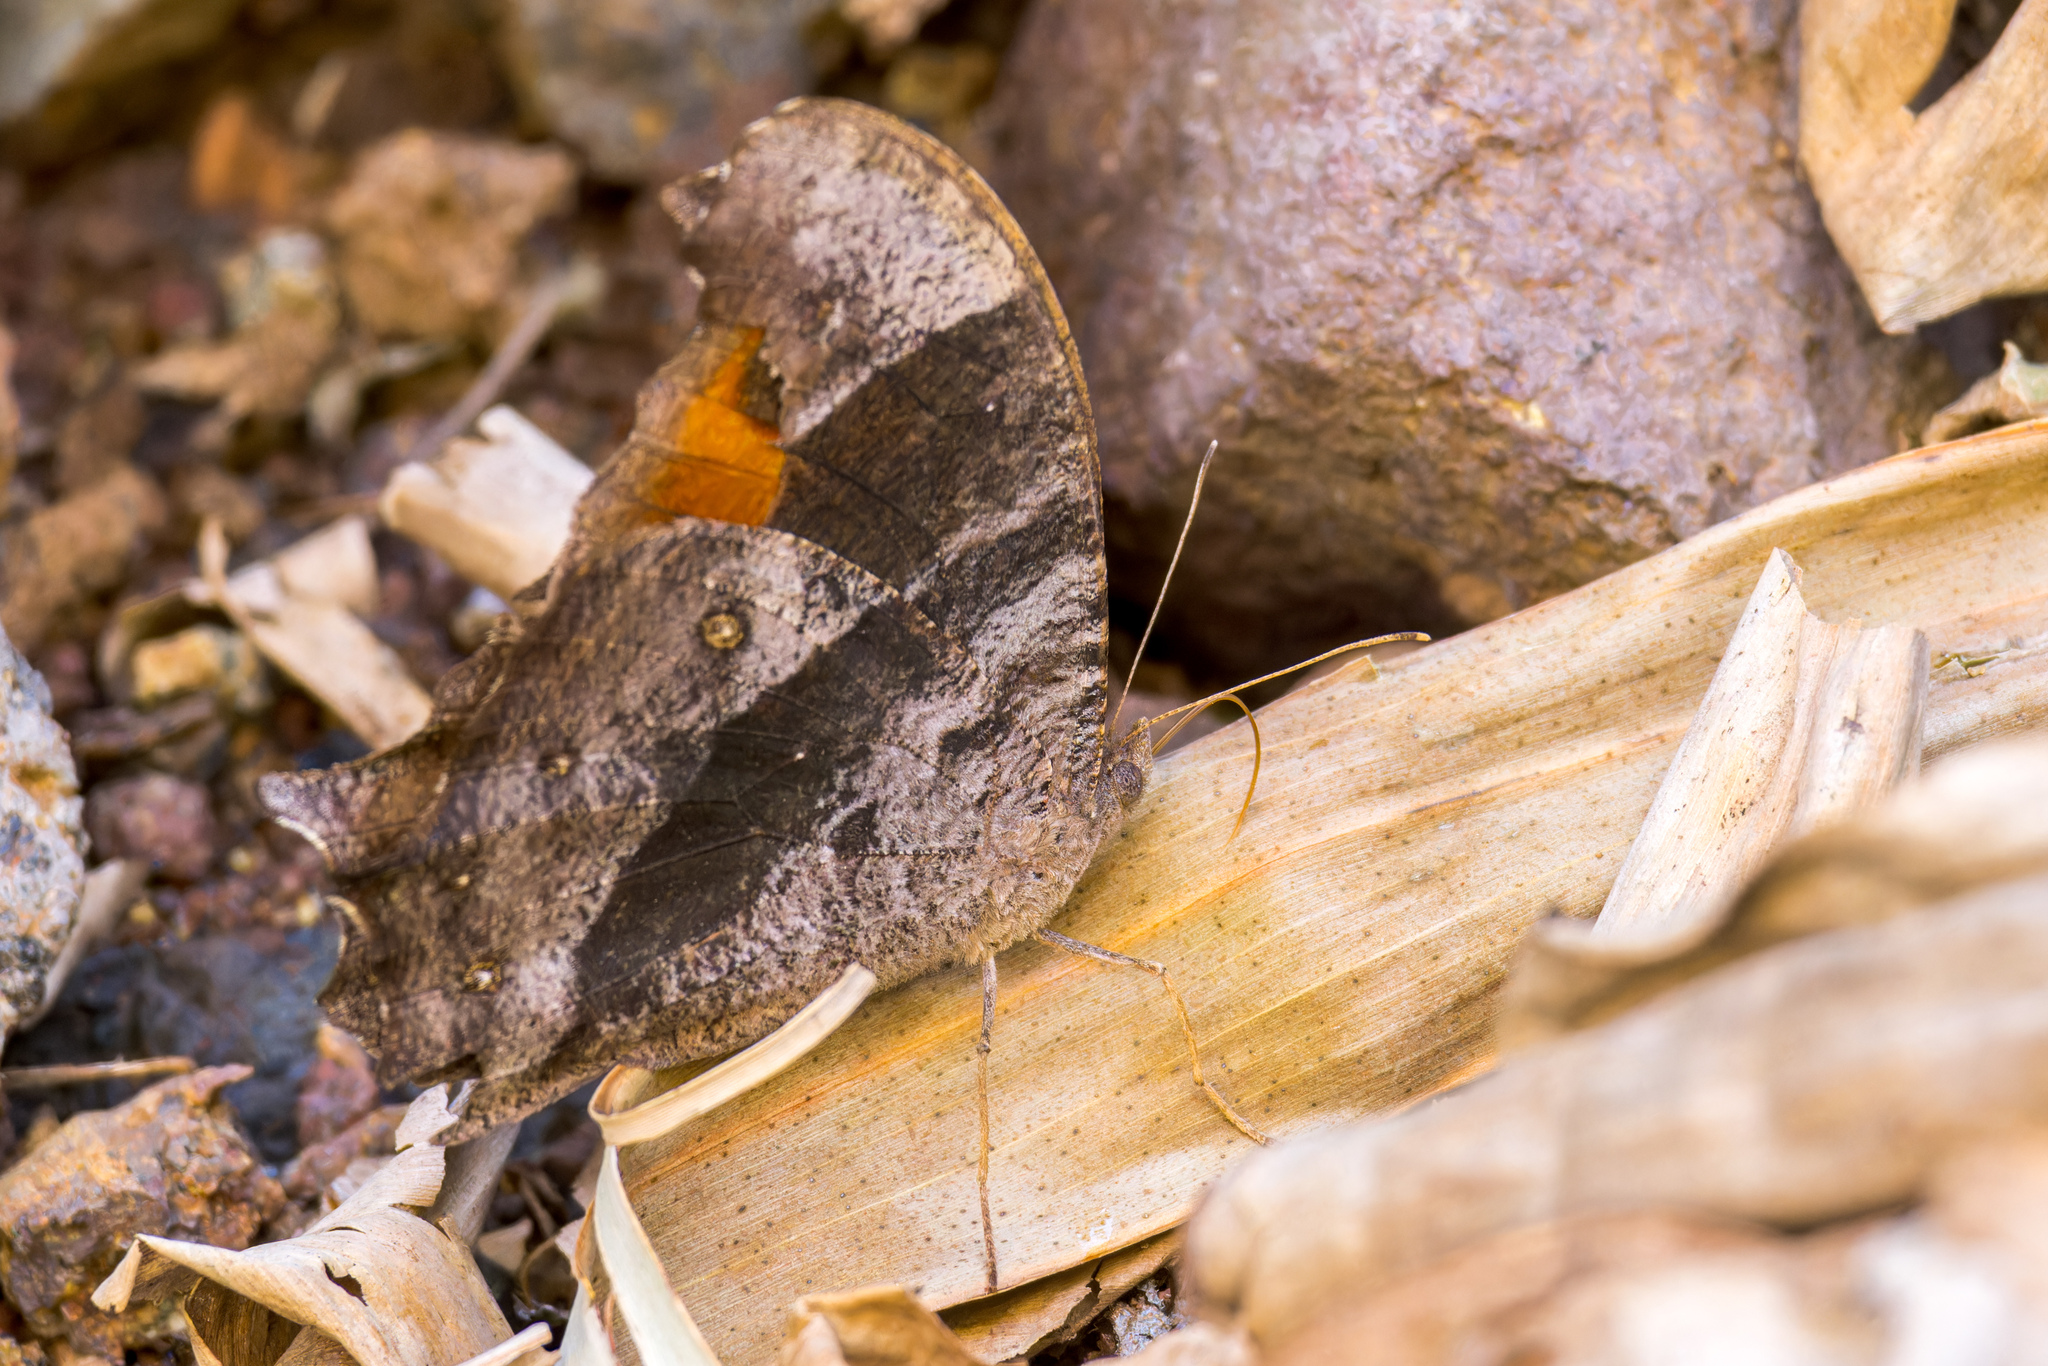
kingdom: Animalia
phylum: Arthropoda
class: Insecta
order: Lepidoptera
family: Nymphalidae
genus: Melanitis
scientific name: Melanitis leda
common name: Twilight brown
